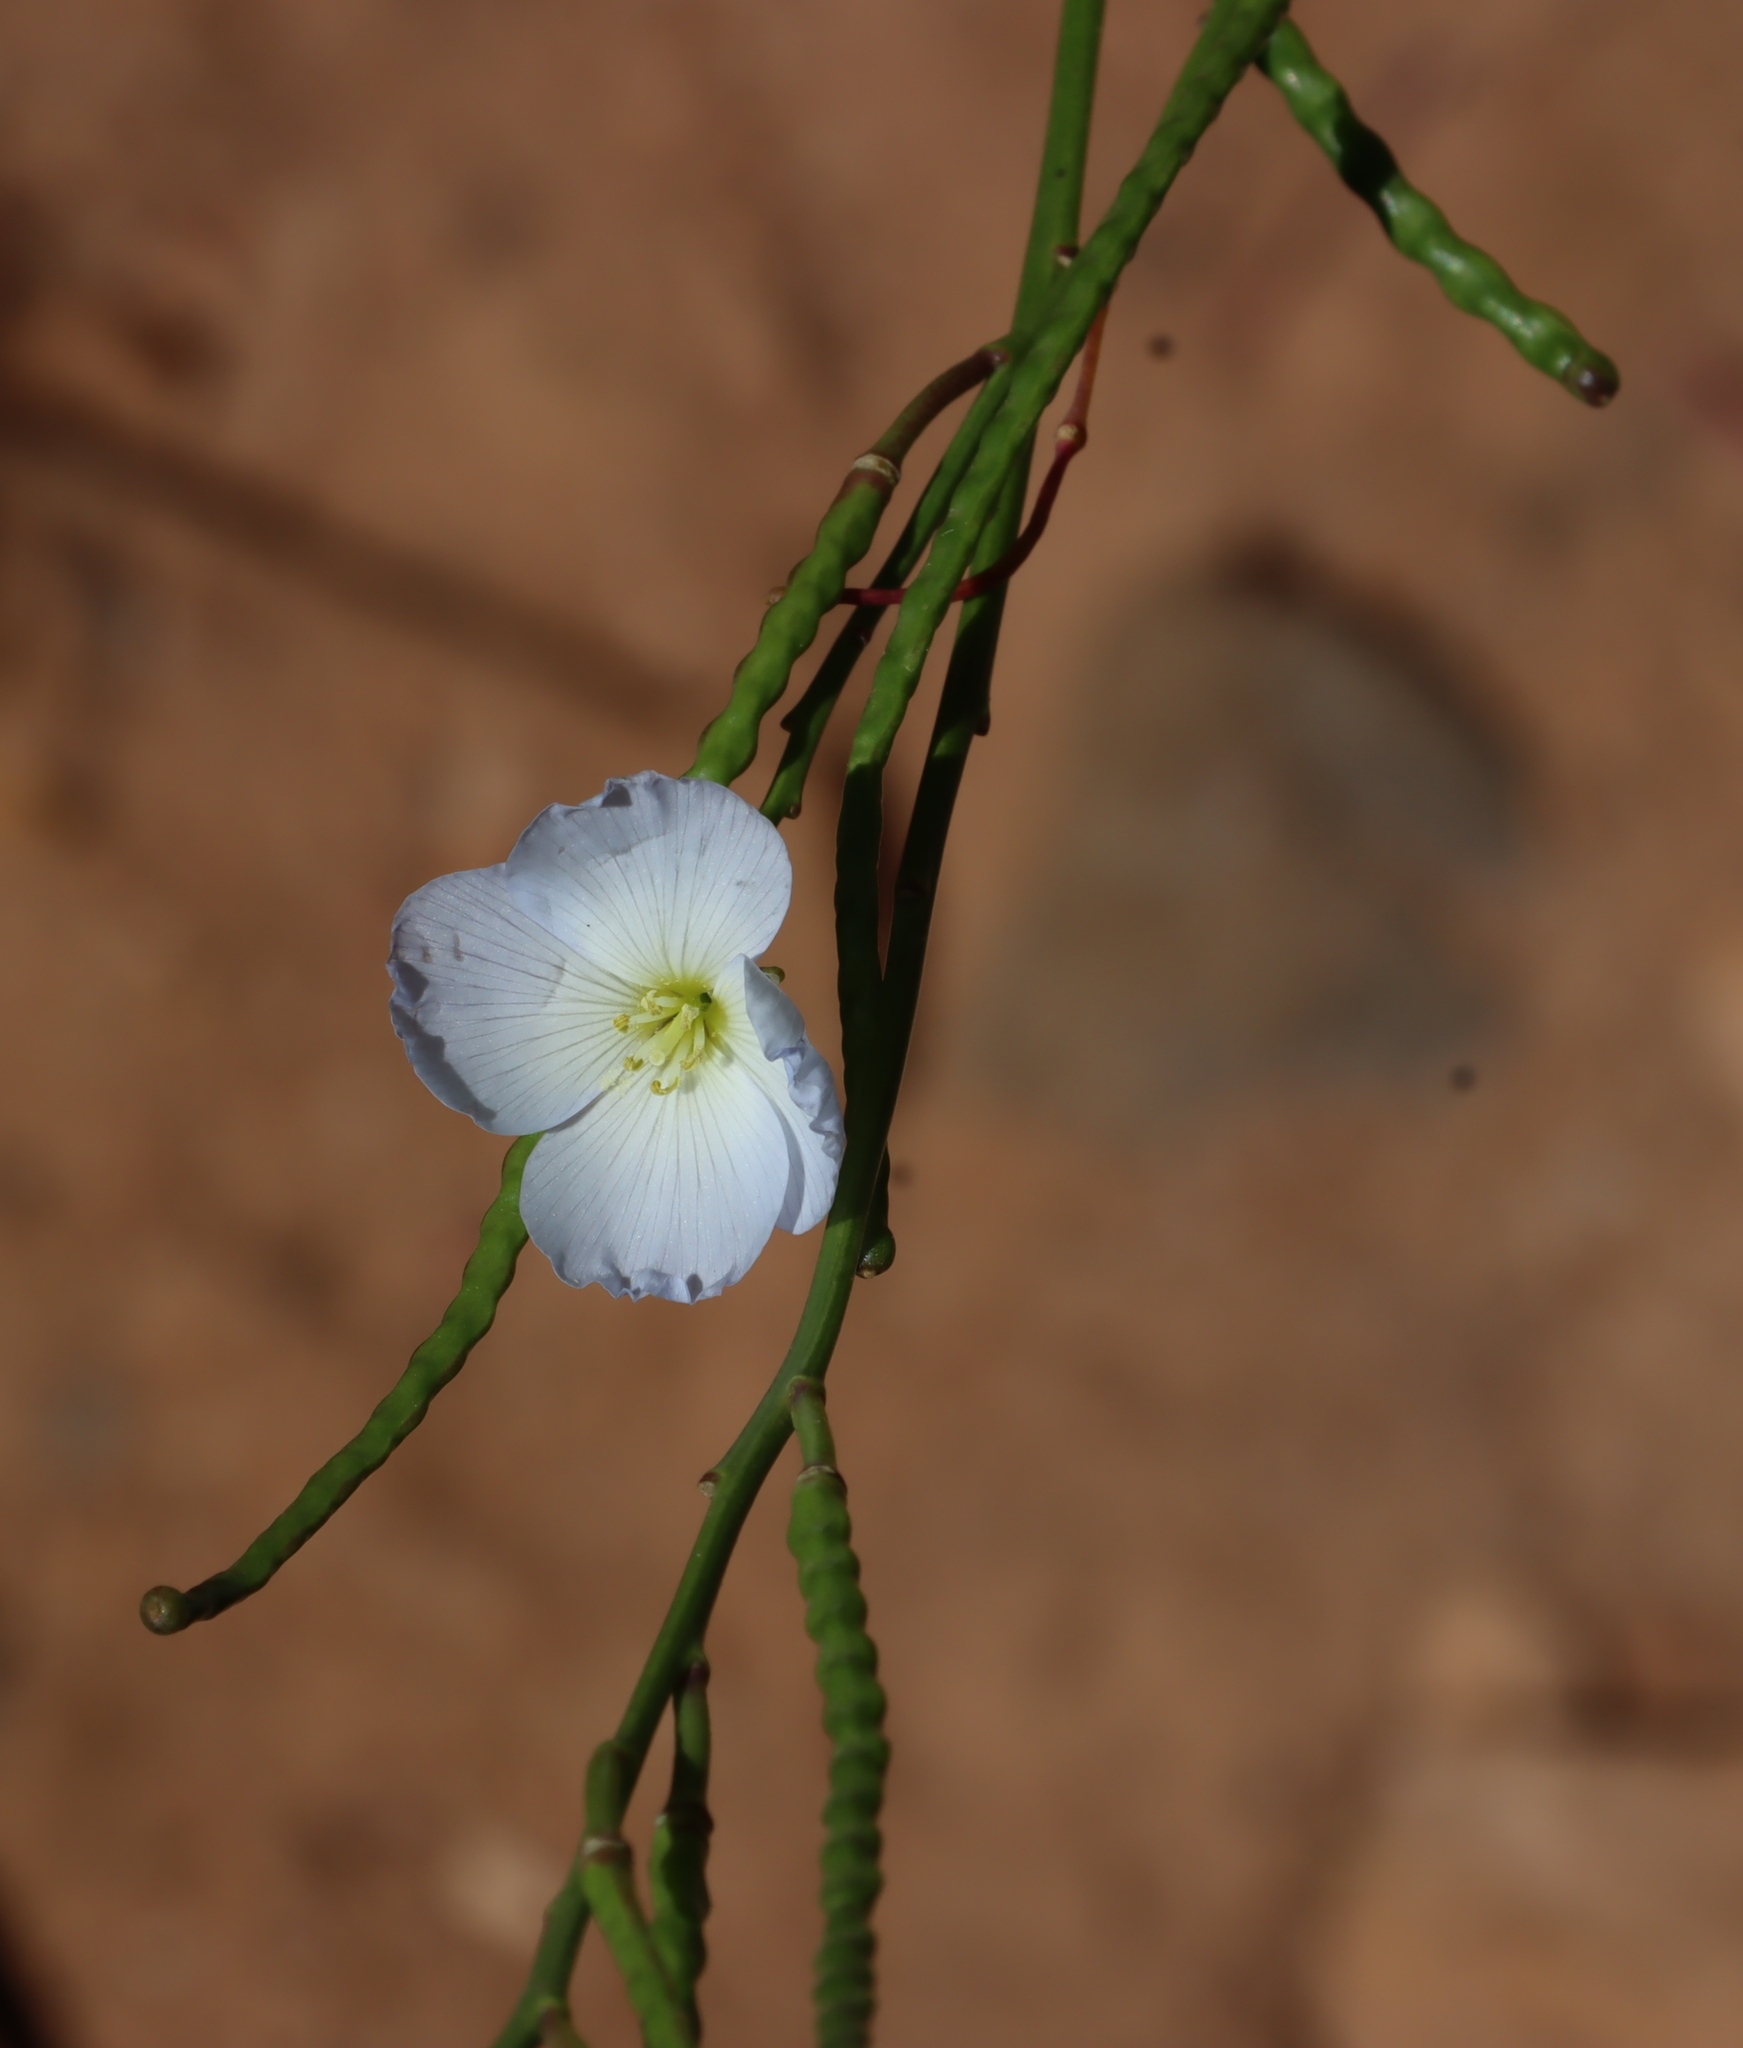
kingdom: Plantae
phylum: Tracheophyta
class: Magnoliopsida
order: Brassicales
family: Brassicaceae
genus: Heliophila
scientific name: Heliophila coronopifolia
